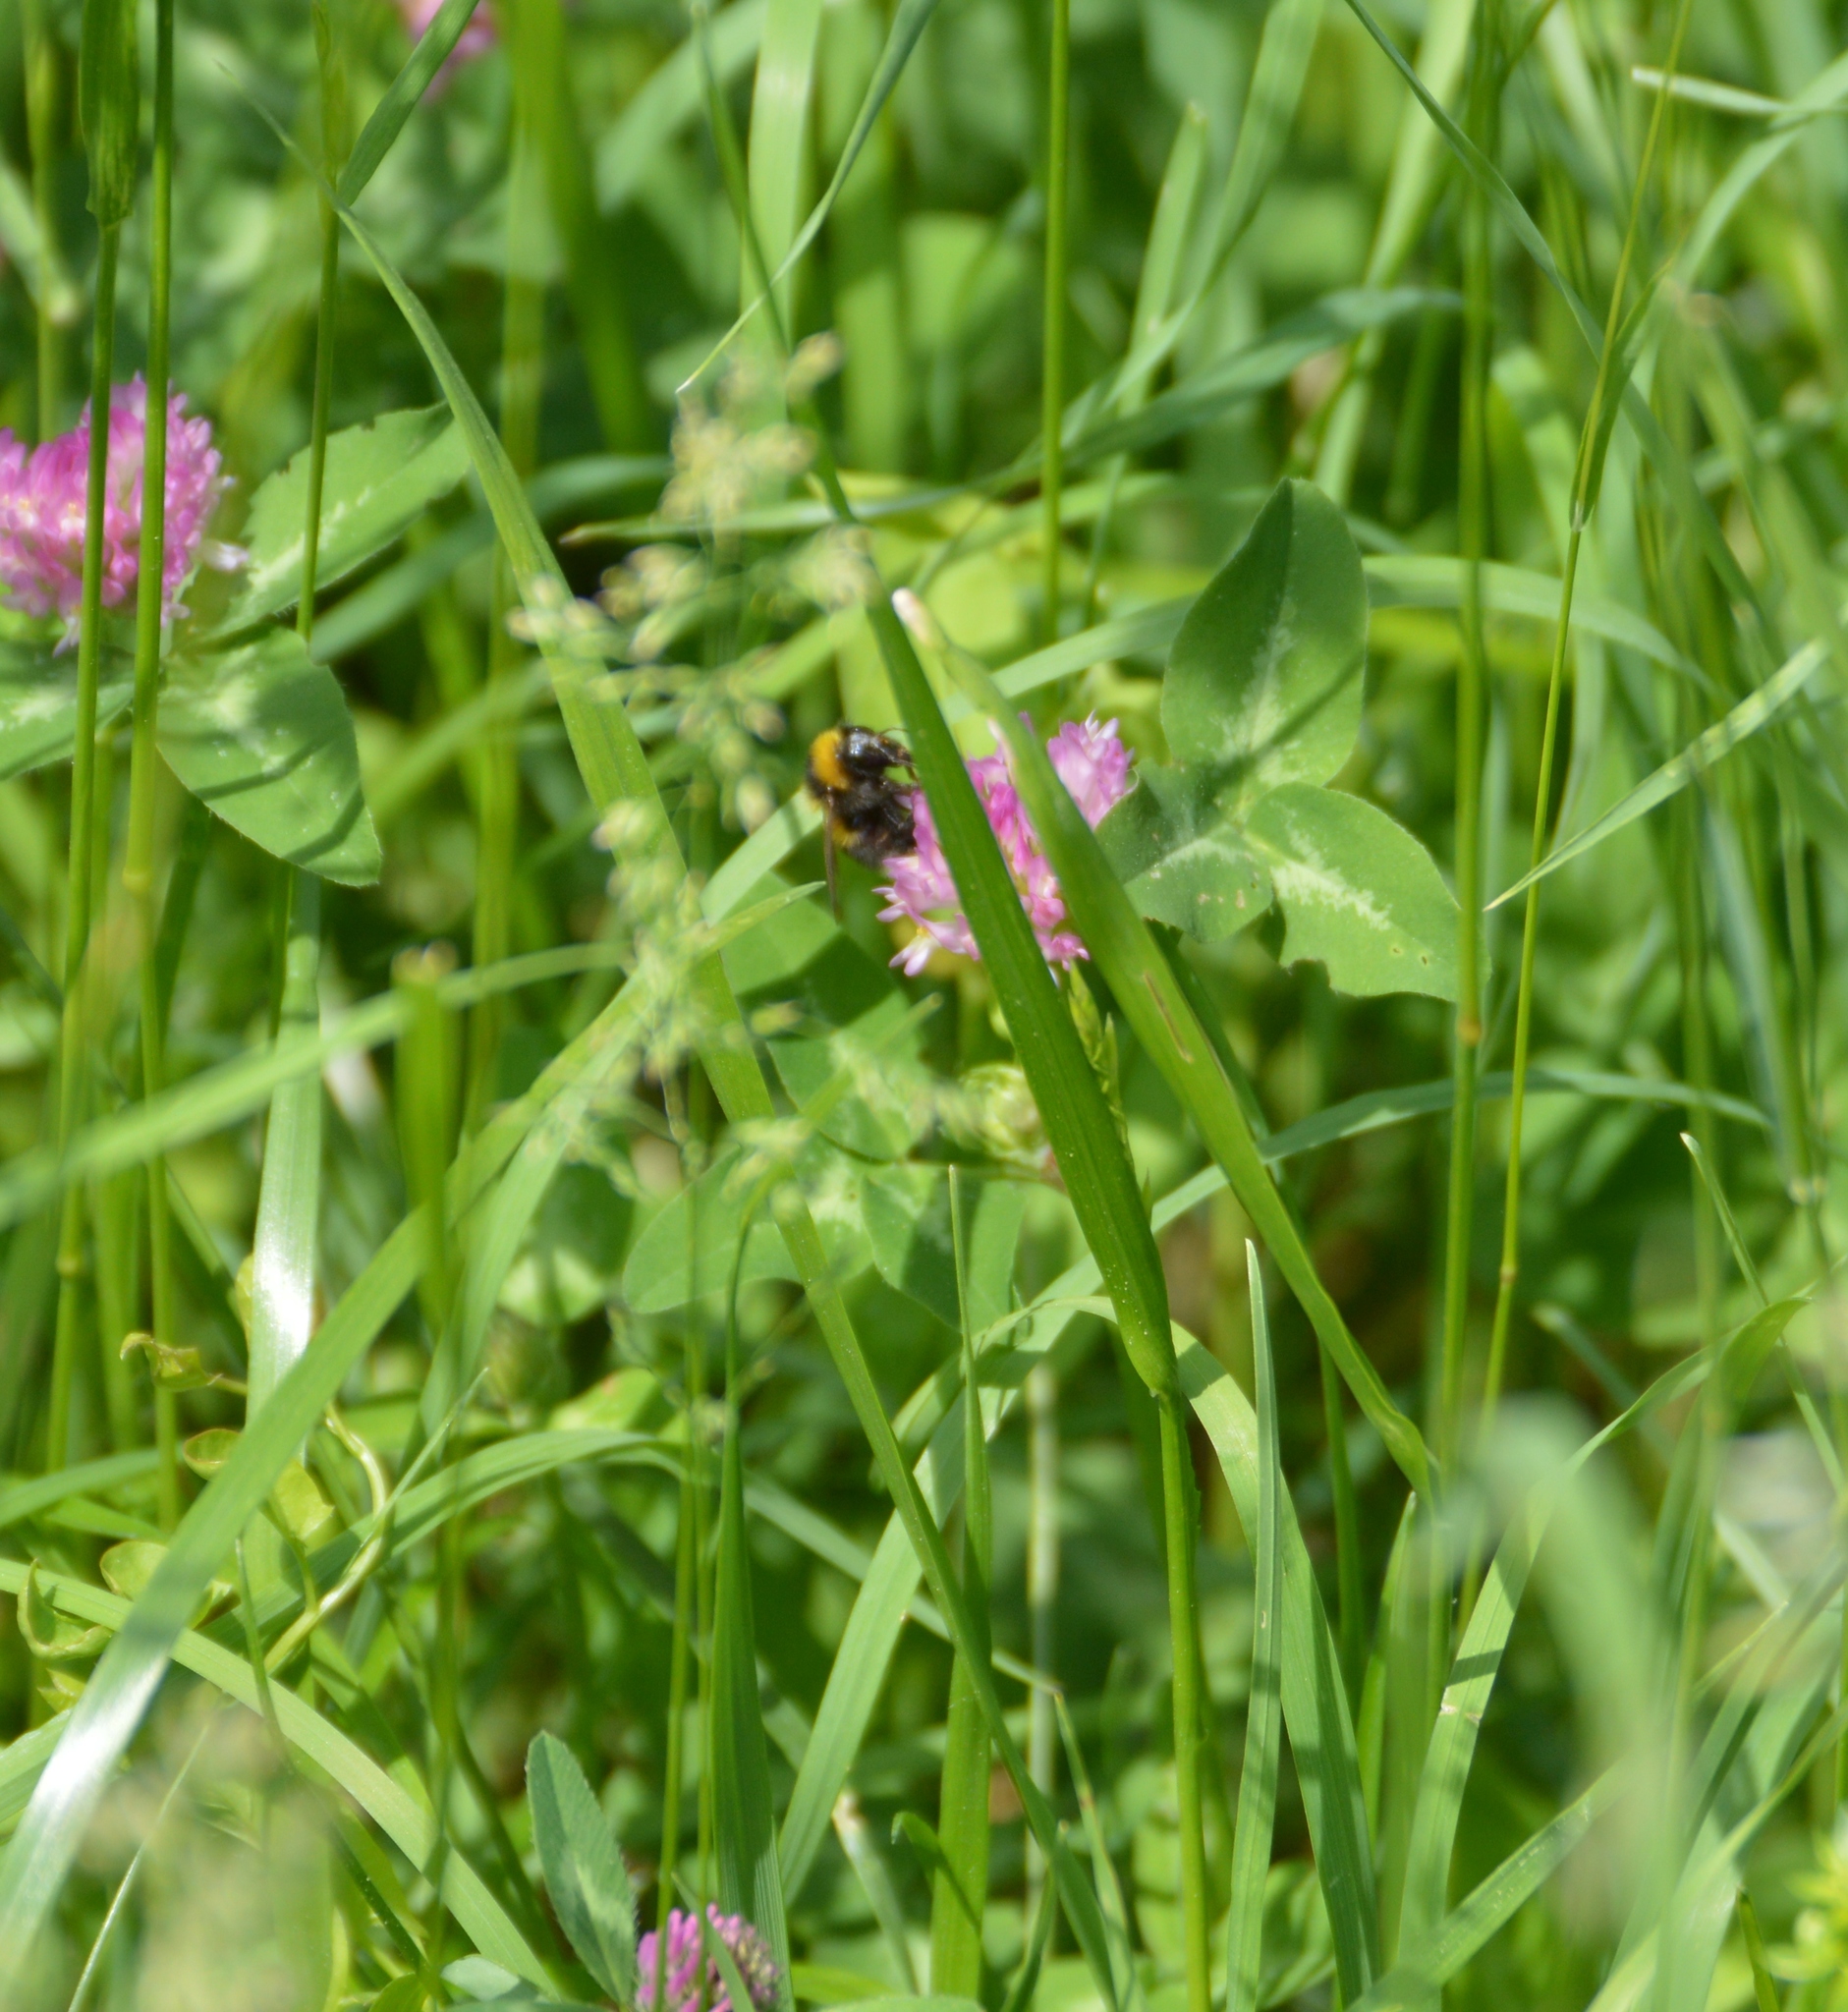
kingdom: Animalia
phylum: Arthropoda
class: Insecta
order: Hymenoptera
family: Apidae
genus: Bombus
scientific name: Bombus hortorum
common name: Garden bumblebee
